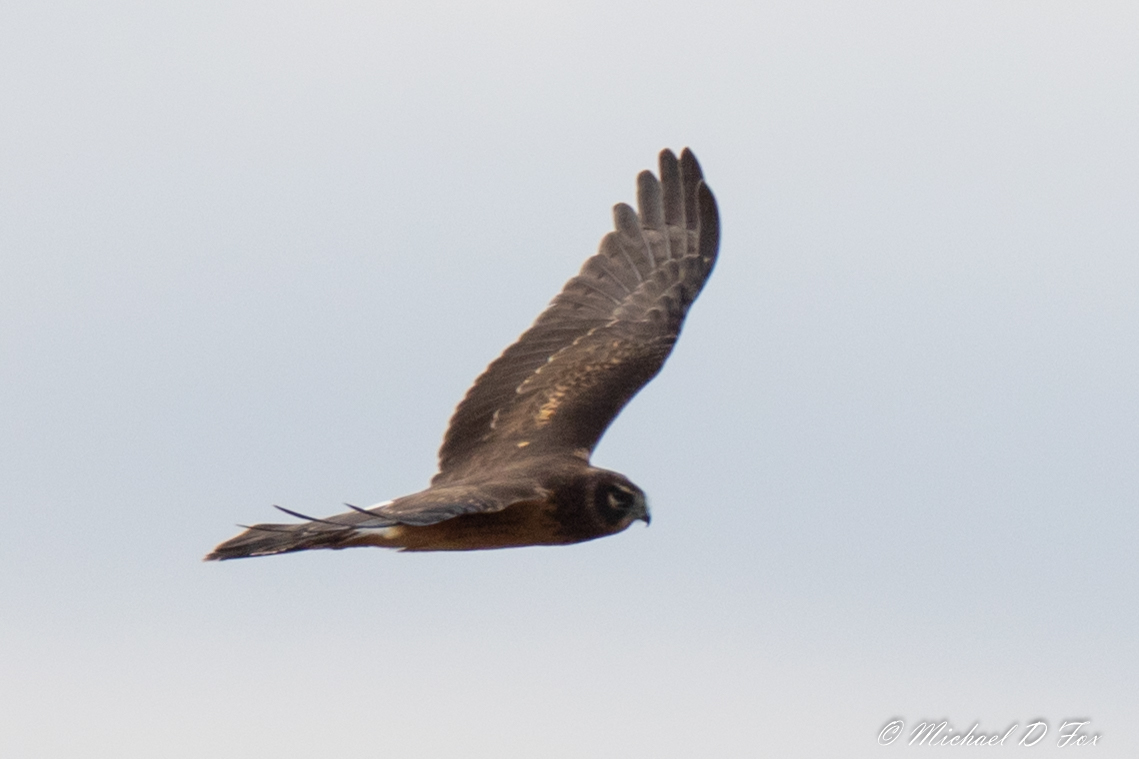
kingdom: Animalia
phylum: Chordata
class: Aves
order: Accipitriformes
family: Accipitridae
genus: Circus
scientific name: Circus cyaneus
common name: Hen harrier
